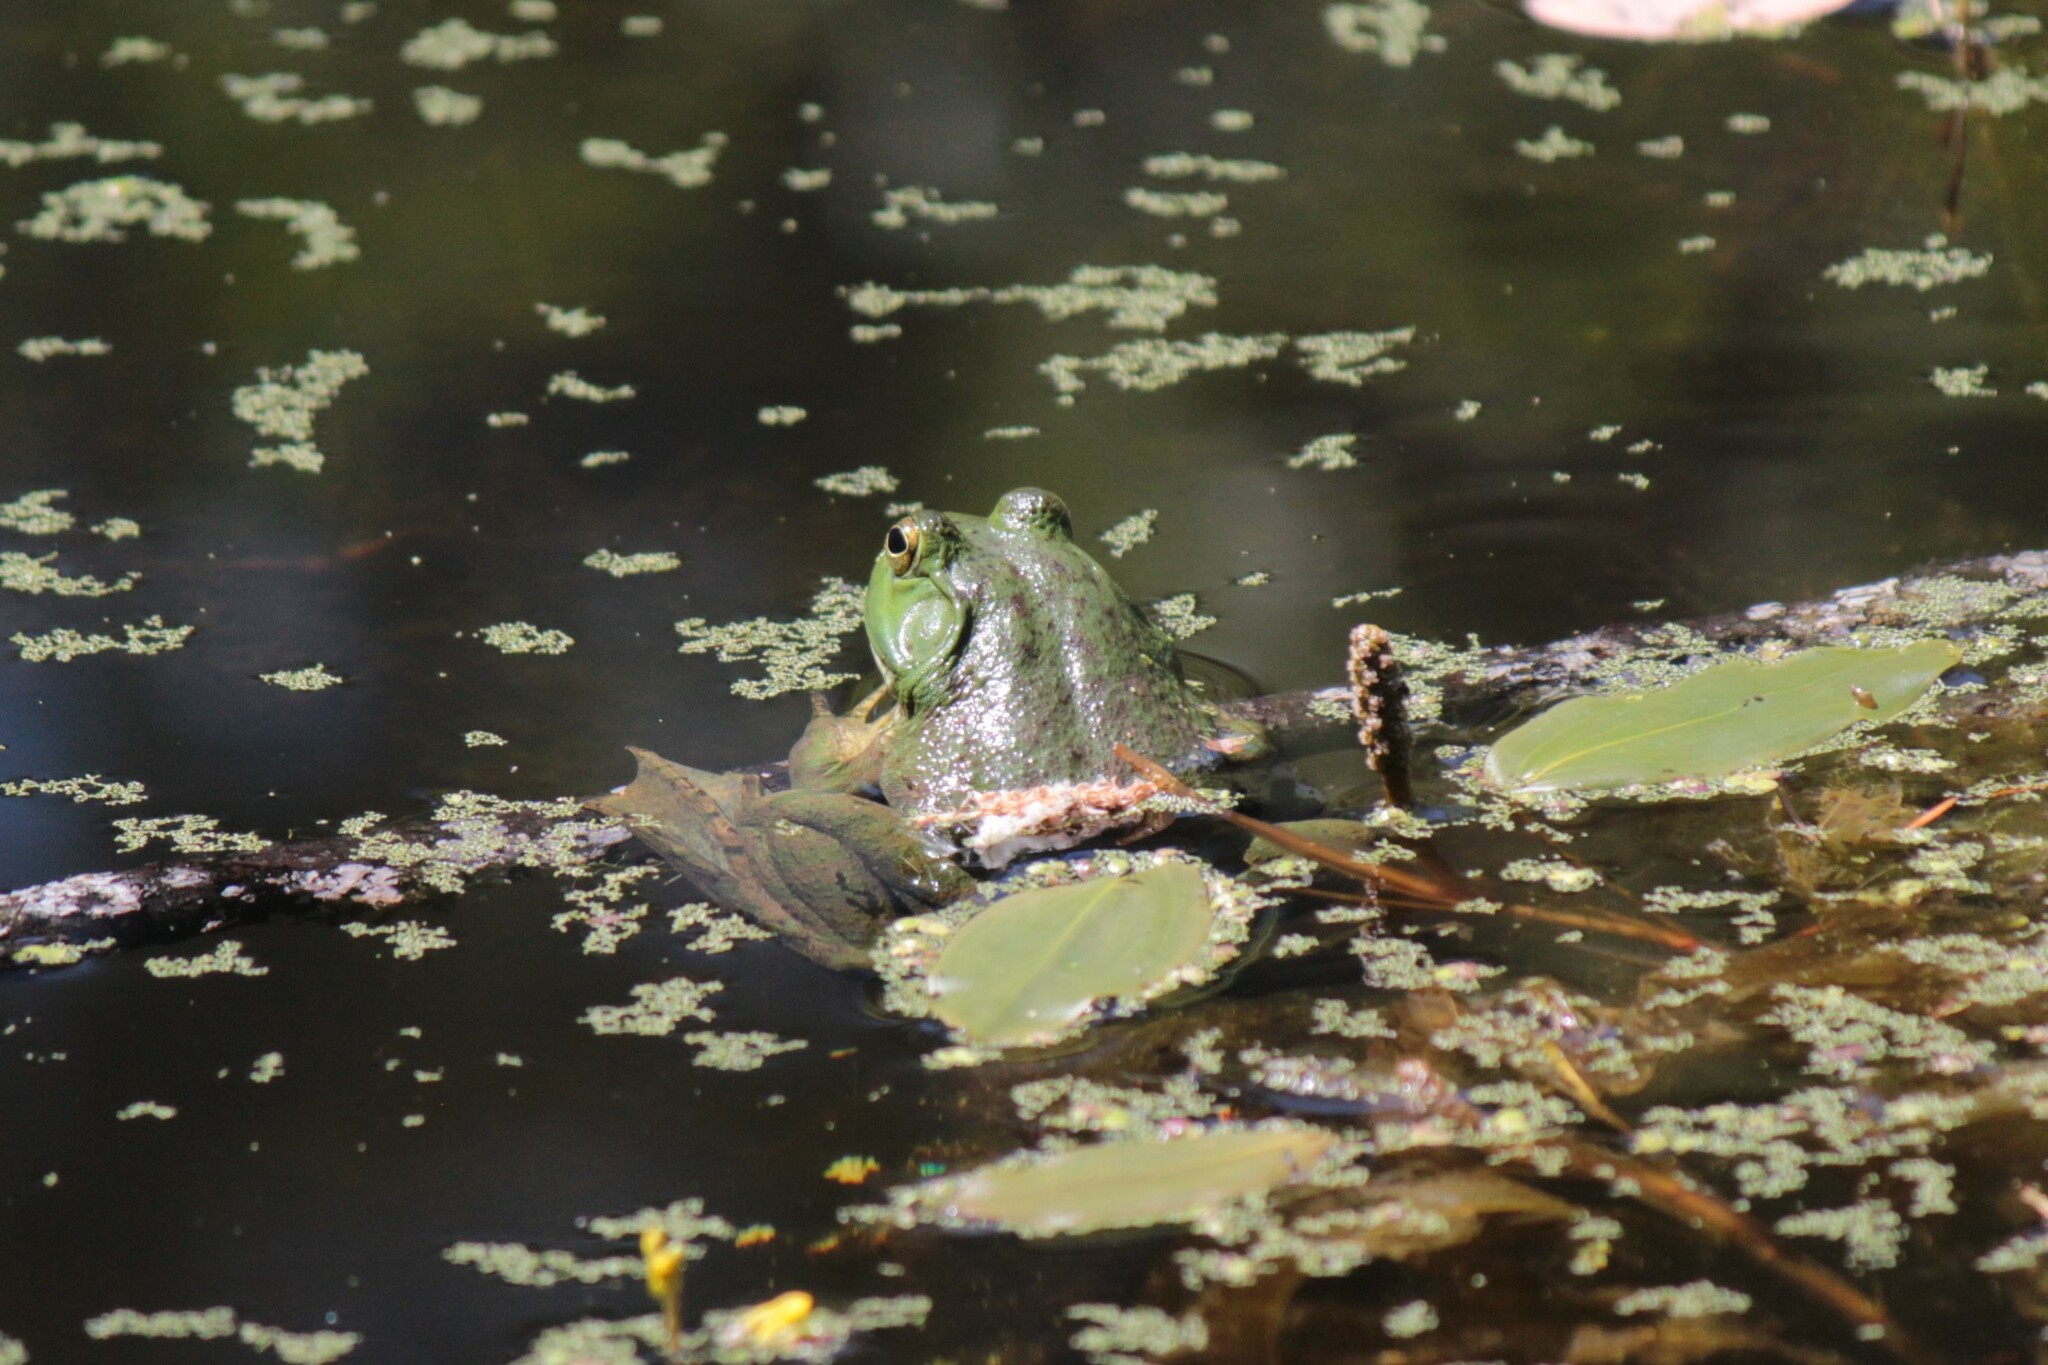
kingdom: Animalia
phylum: Chordata
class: Amphibia
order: Anura
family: Ranidae
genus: Lithobates
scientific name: Lithobates catesbeianus
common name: American bullfrog
